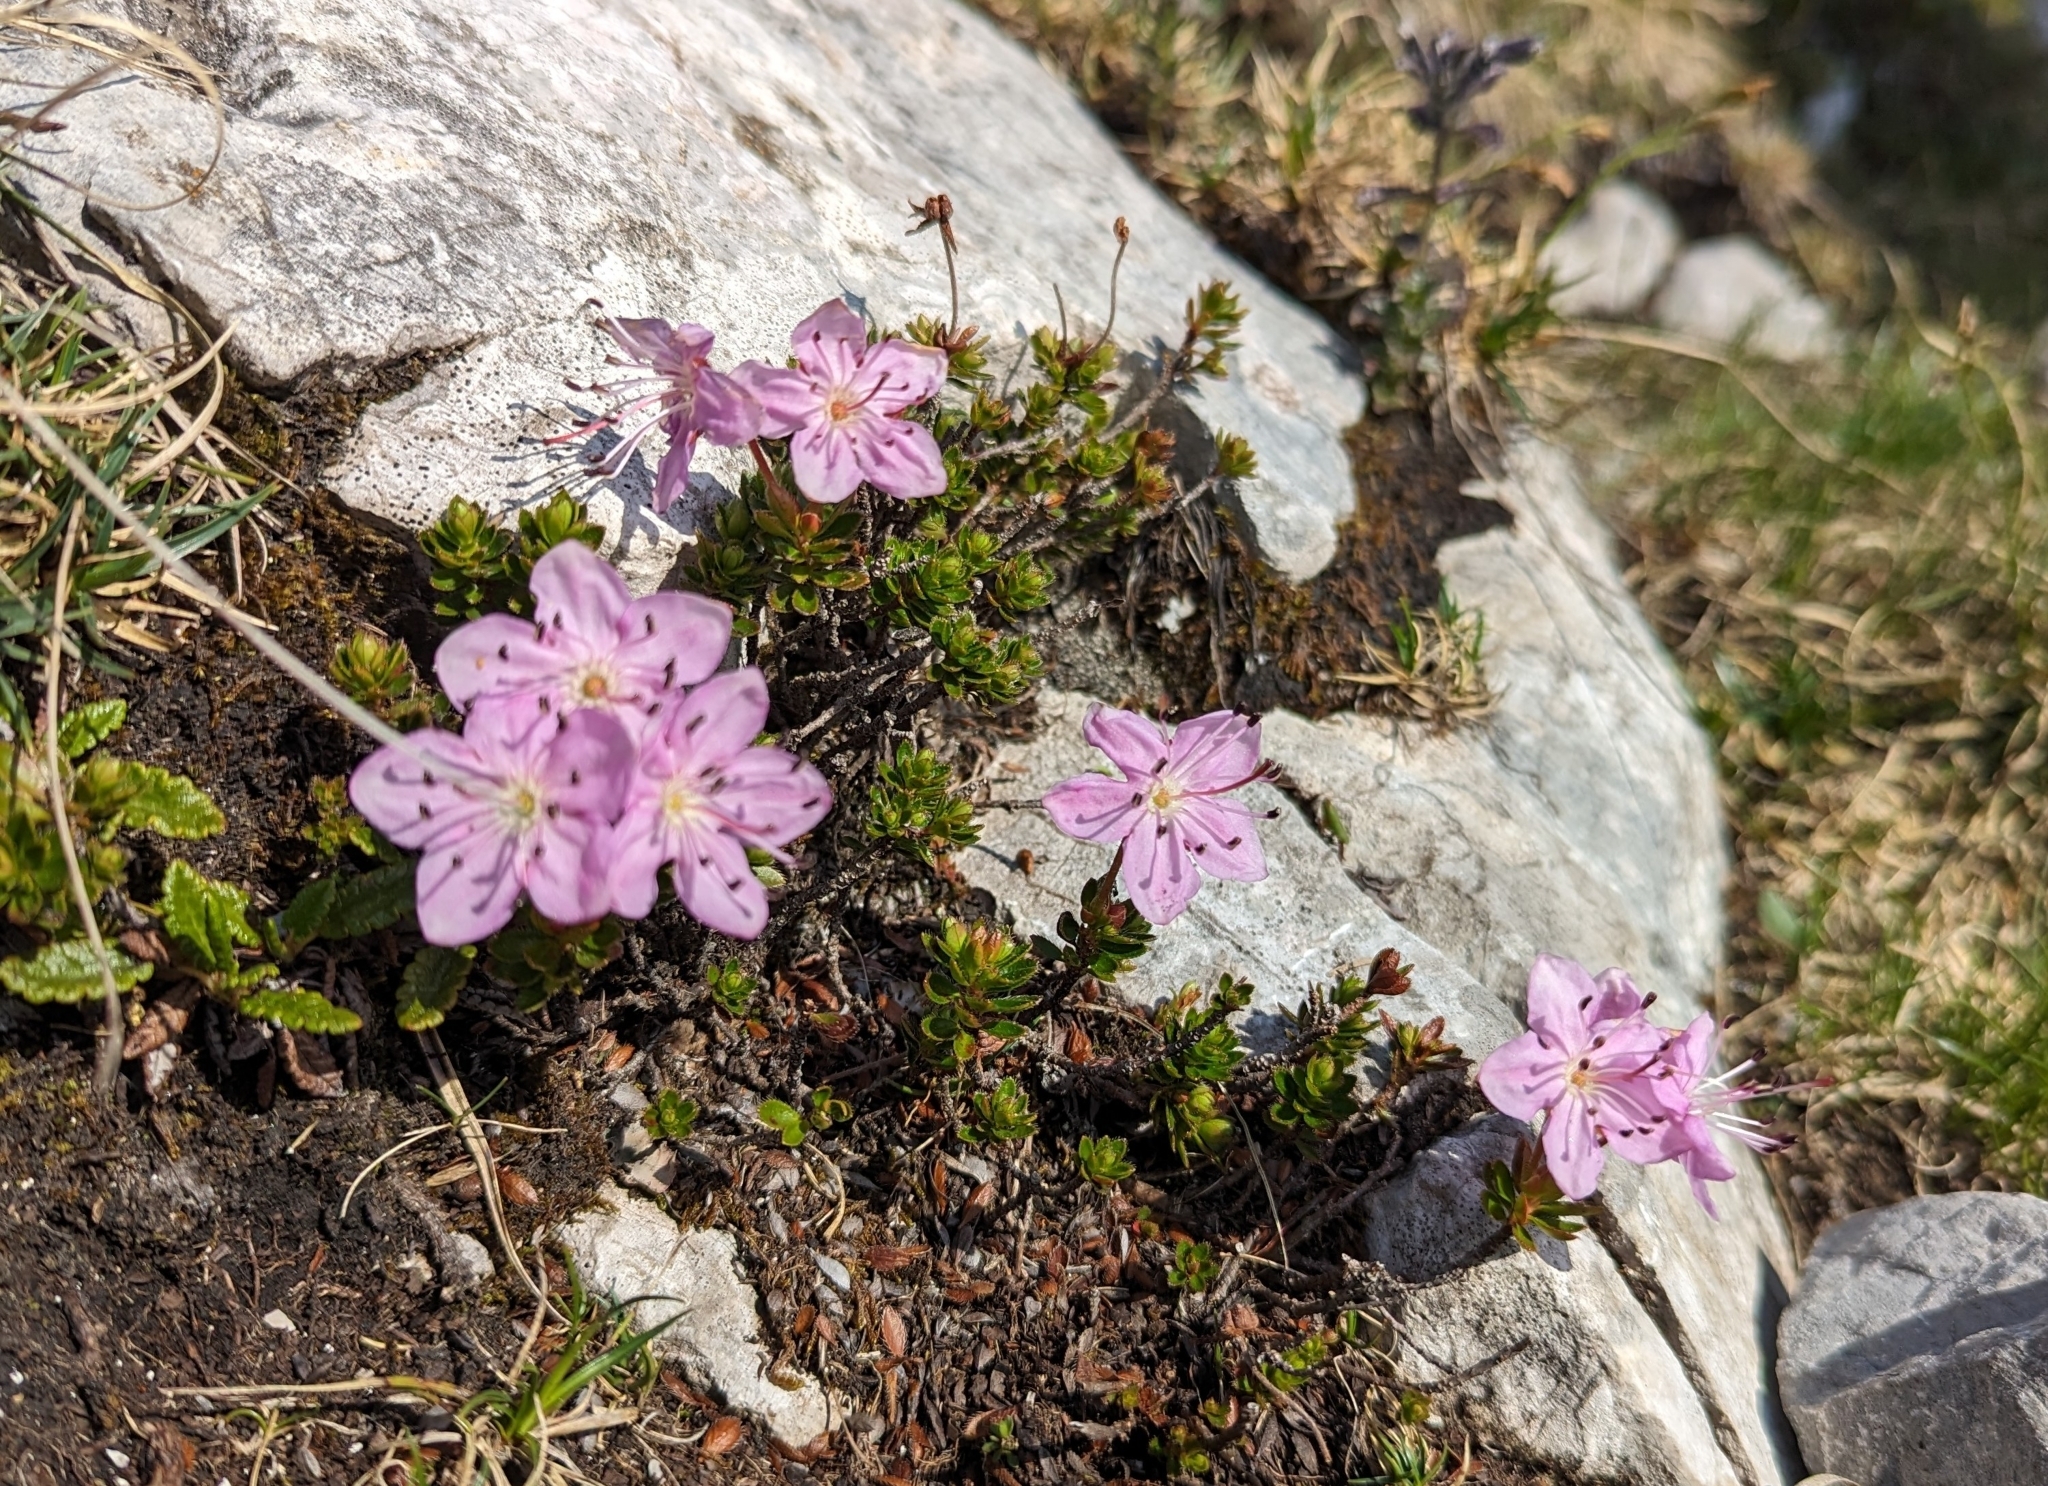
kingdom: Plantae
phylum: Tracheophyta
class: Magnoliopsida
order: Ericales
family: Ericaceae
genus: Rhodothamnus
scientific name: Rhodothamnus chamaecistus
